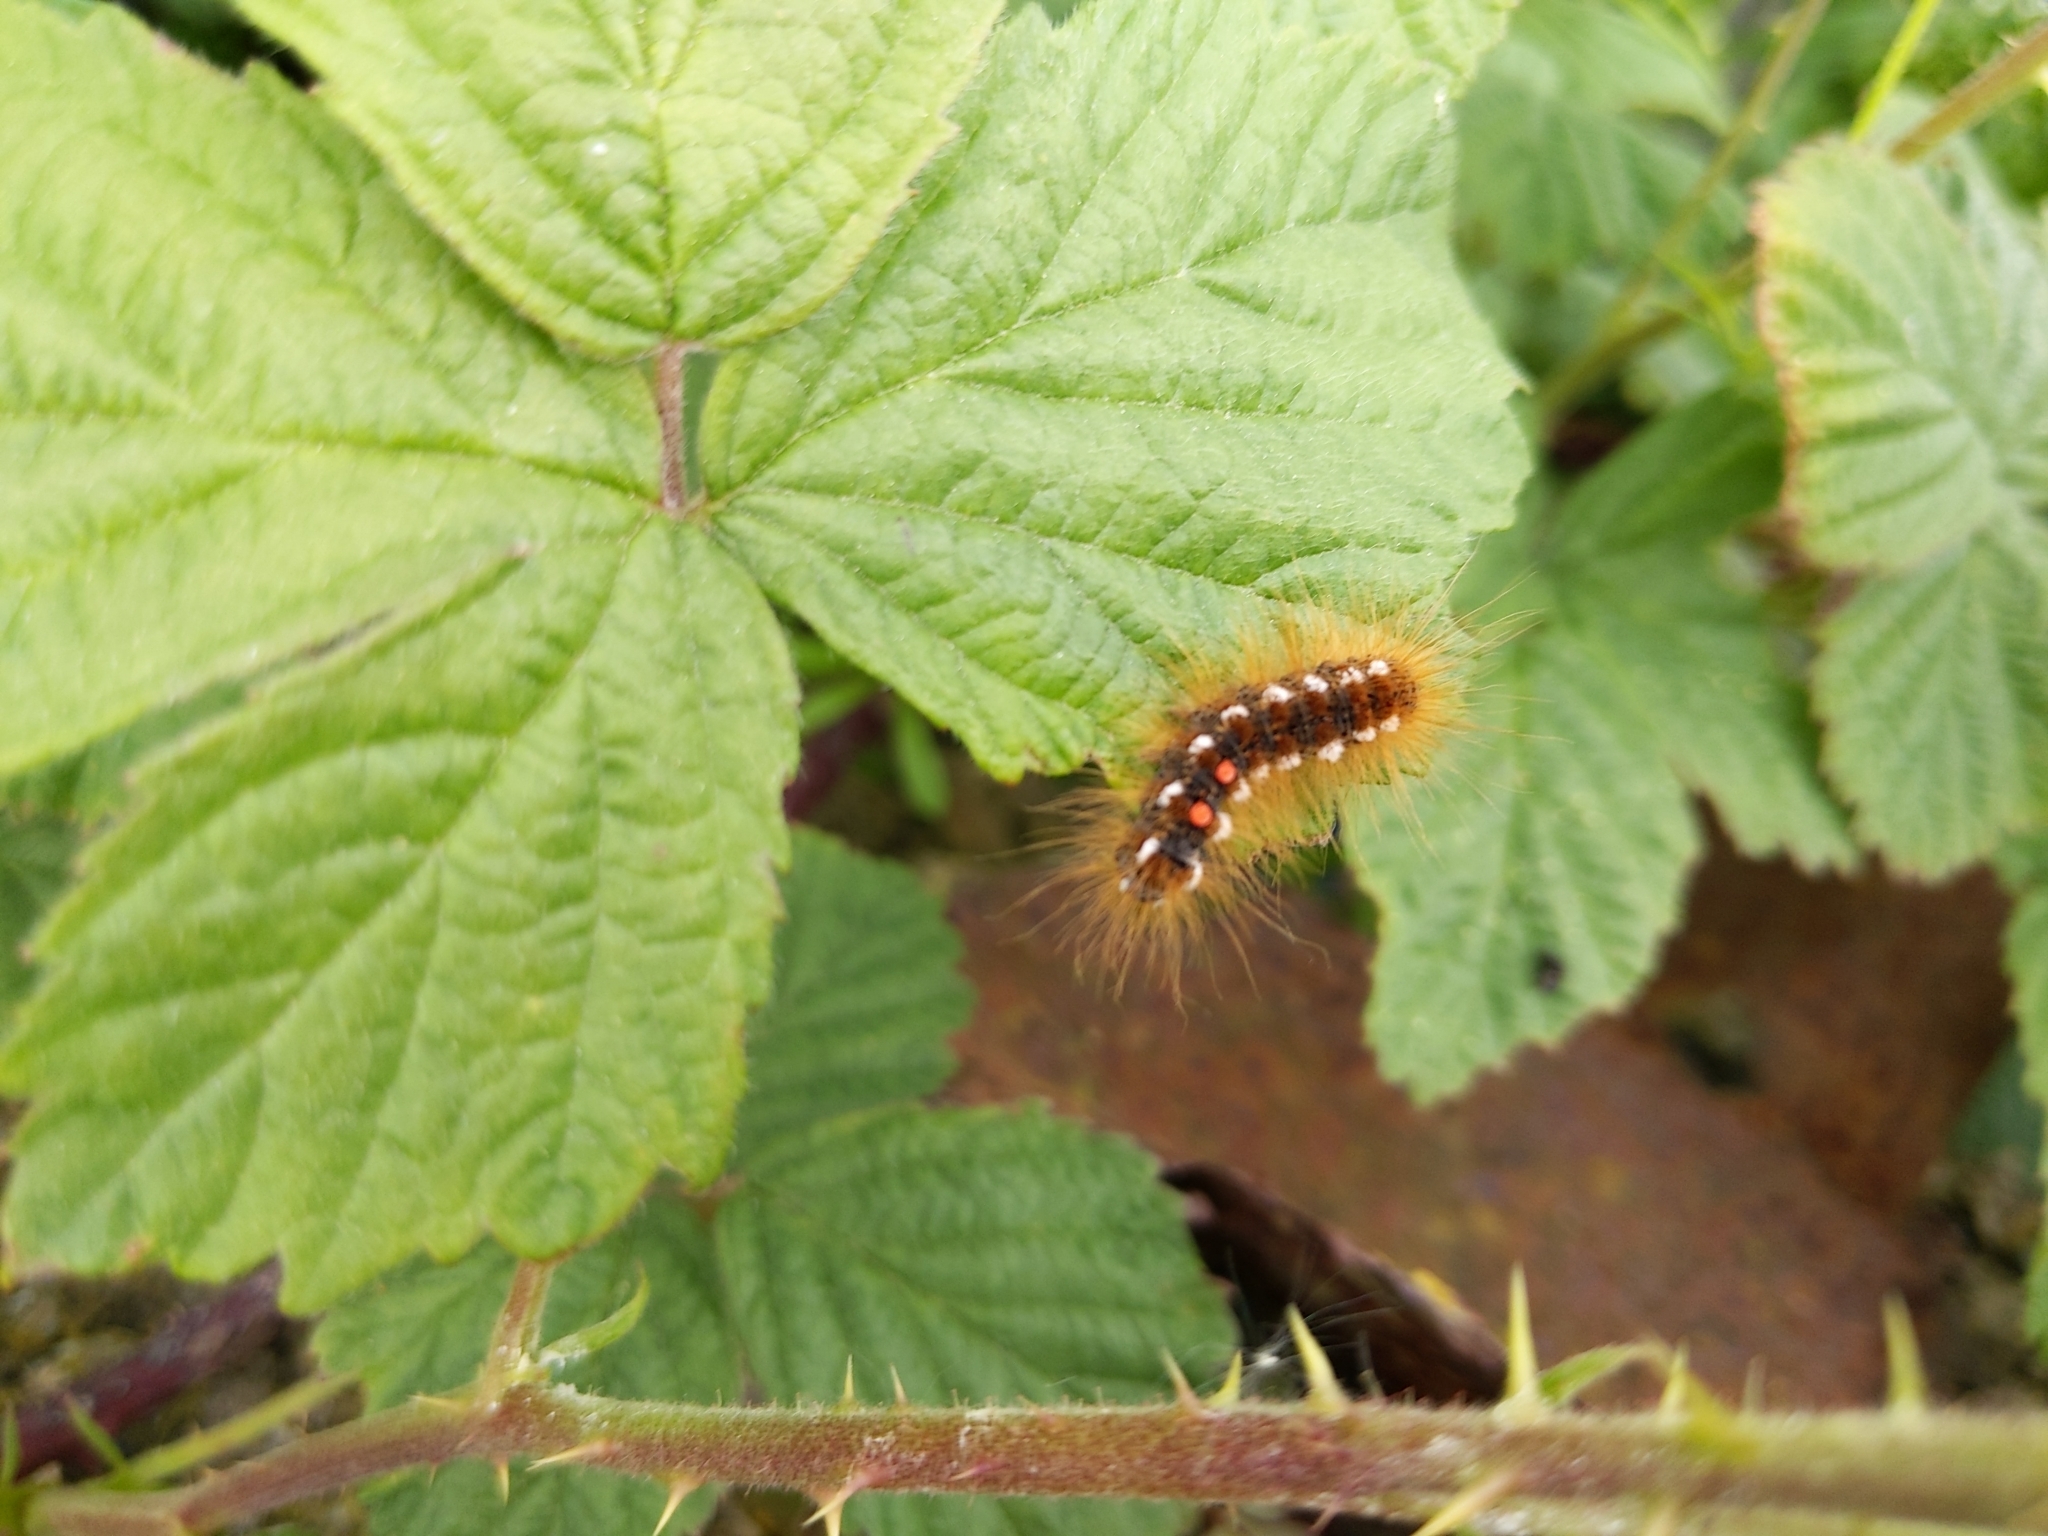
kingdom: Animalia
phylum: Arthropoda
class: Insecta
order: Lepidoptera
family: Erebidae
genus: Euproctis
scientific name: Euproctis chrysorrhoea
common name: Brown-tail
